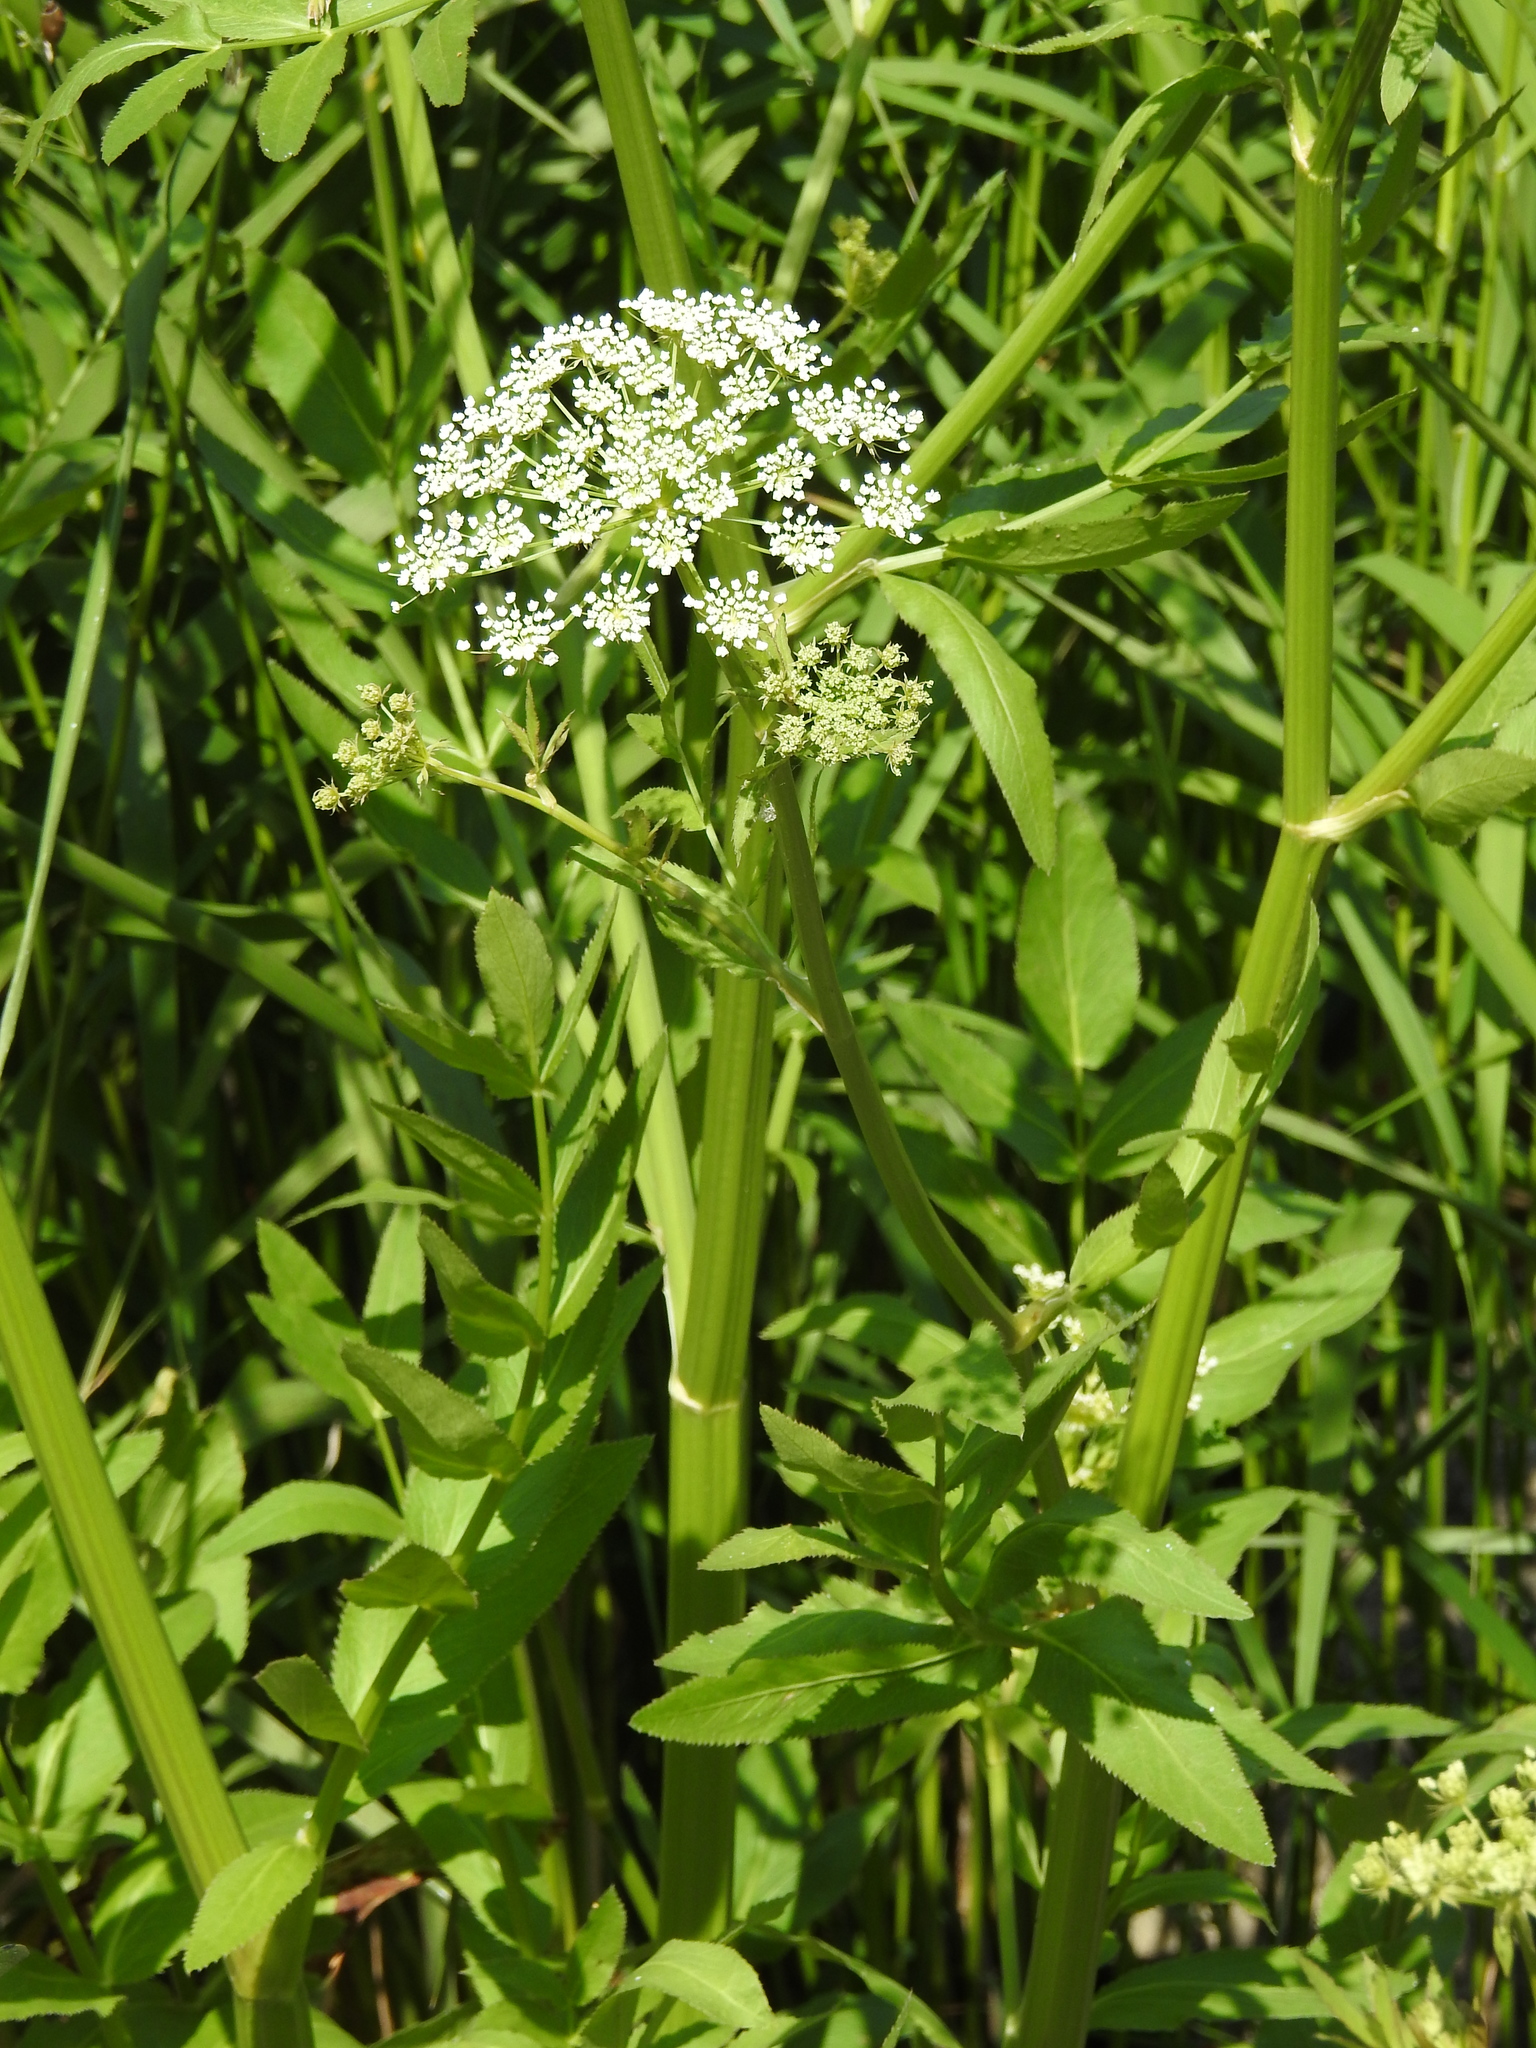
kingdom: Plantae
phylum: Tracheophyta
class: Magnoliopsida
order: Apiales
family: Apiaceae
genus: Sium
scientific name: Sium latifolium
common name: Greater water-parsnip
